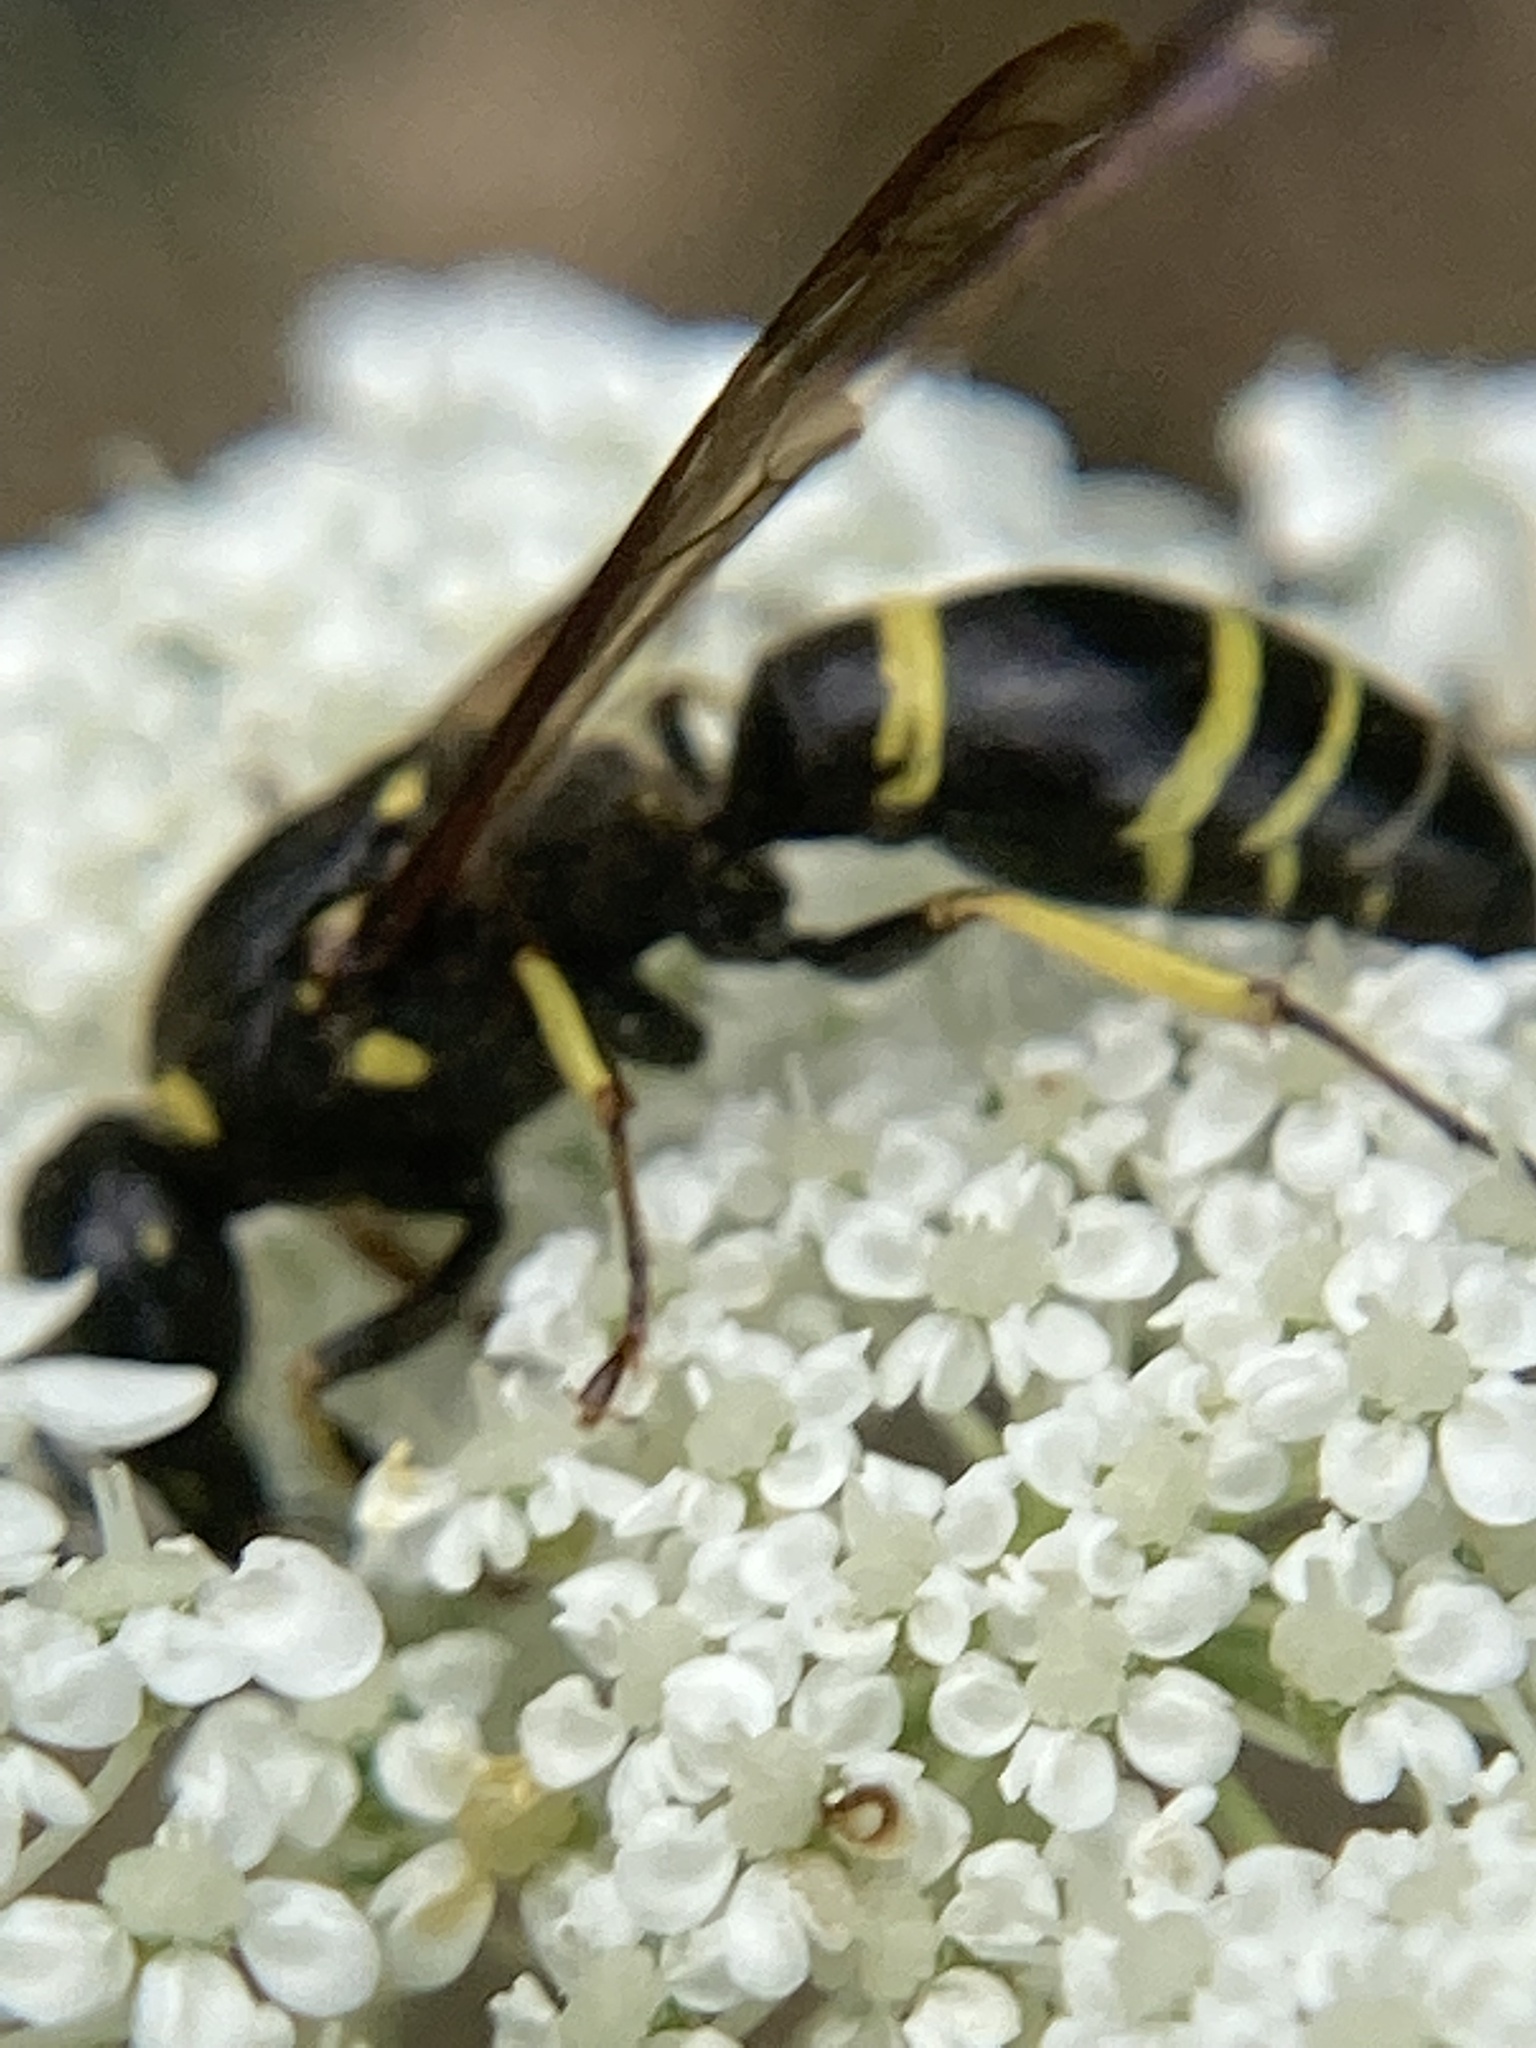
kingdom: Animalia
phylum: Arthropoda
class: Insecta
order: Hymenoptera
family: Vespidae
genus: Ancistrocerus
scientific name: Ancistrocerus adiabatus
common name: Bramble mason wasp
